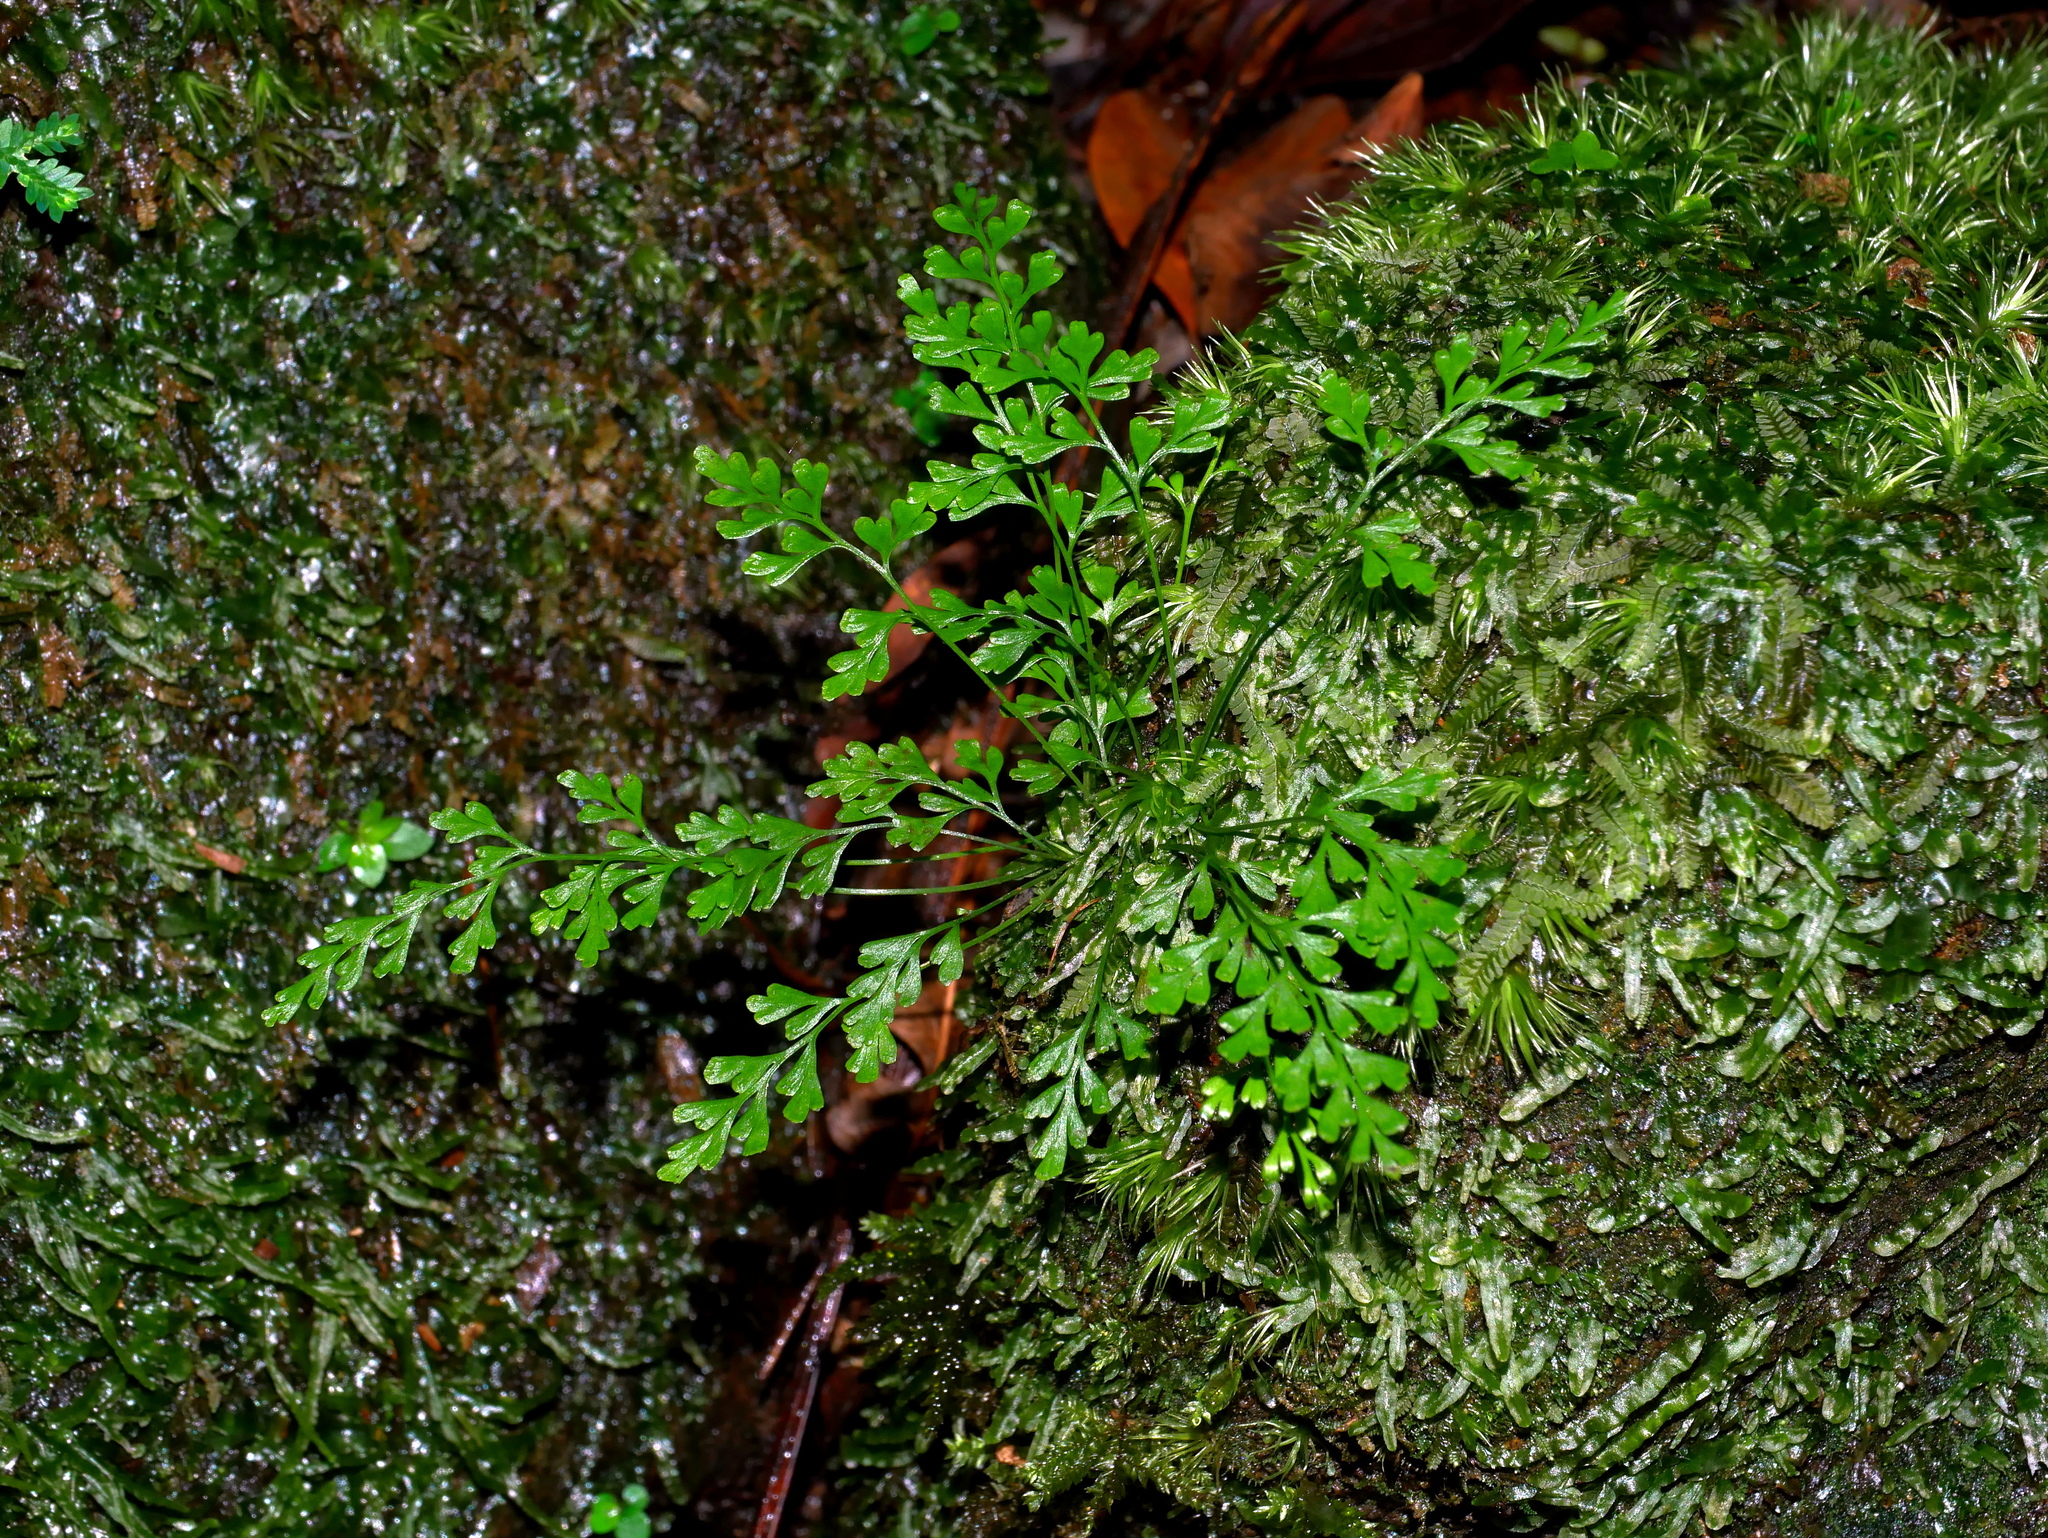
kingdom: Plantae
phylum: Tracheophyta
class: Polypodiopsida
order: Polypodiales
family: Lindsaeaceae
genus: Odontosoria
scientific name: Odontosoria gracilis
